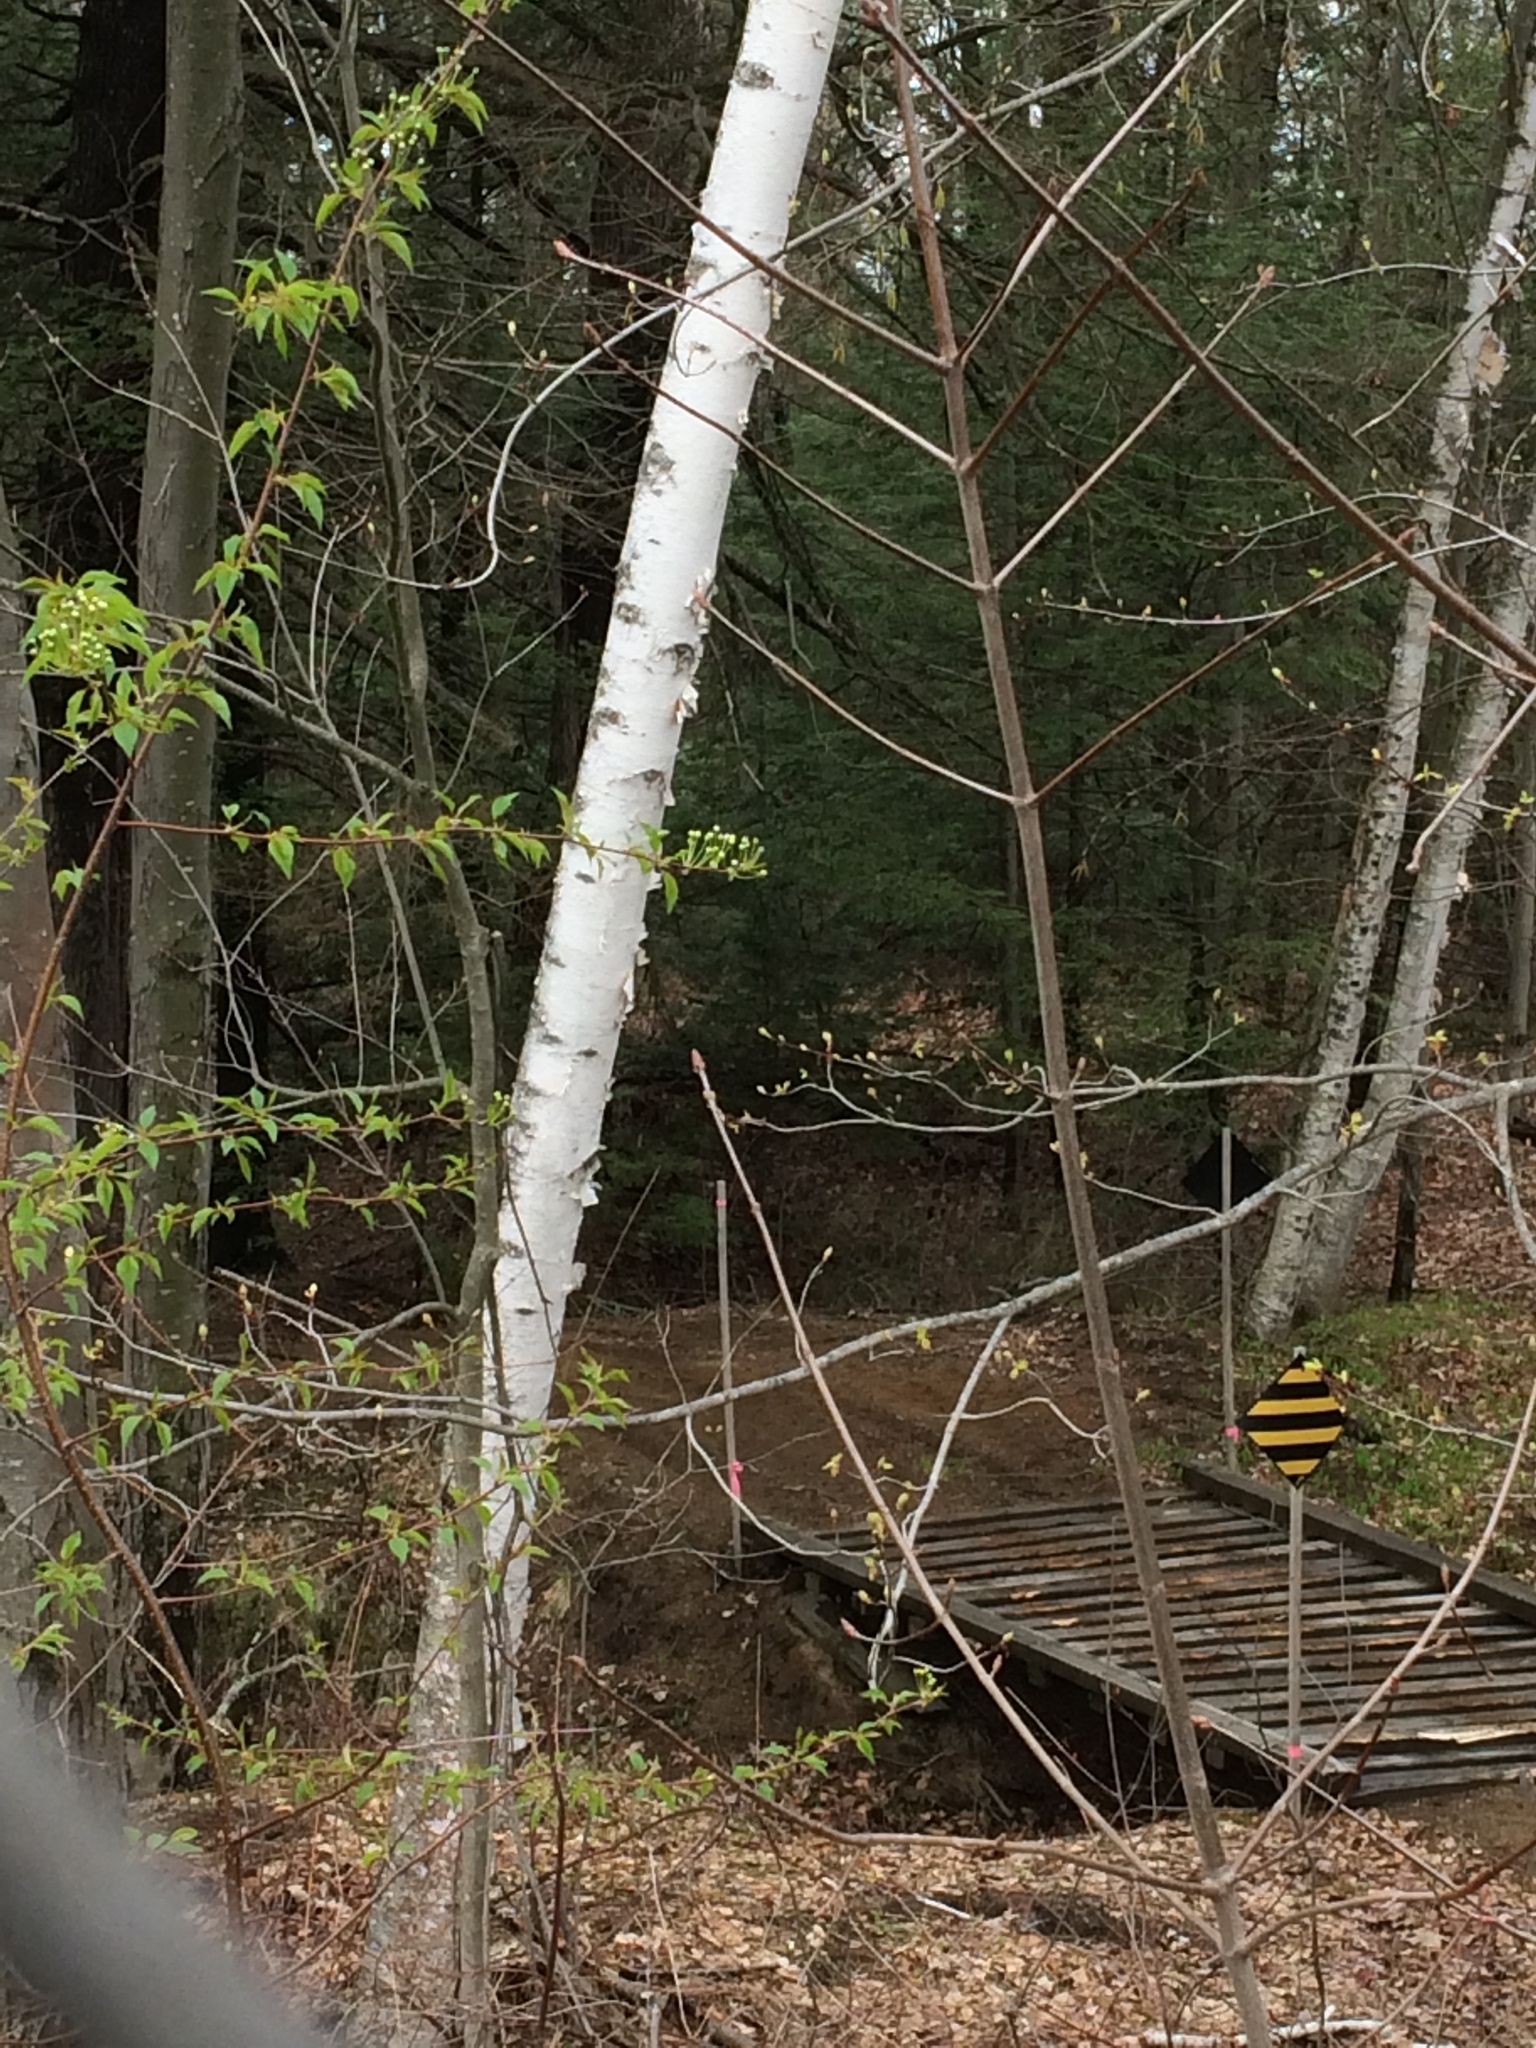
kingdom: Plantae
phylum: Tracheophyta
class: Magnoliopsida
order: Fagales
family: Betulaceae
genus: Betula
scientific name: Betula papyrifera
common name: Paper birch
